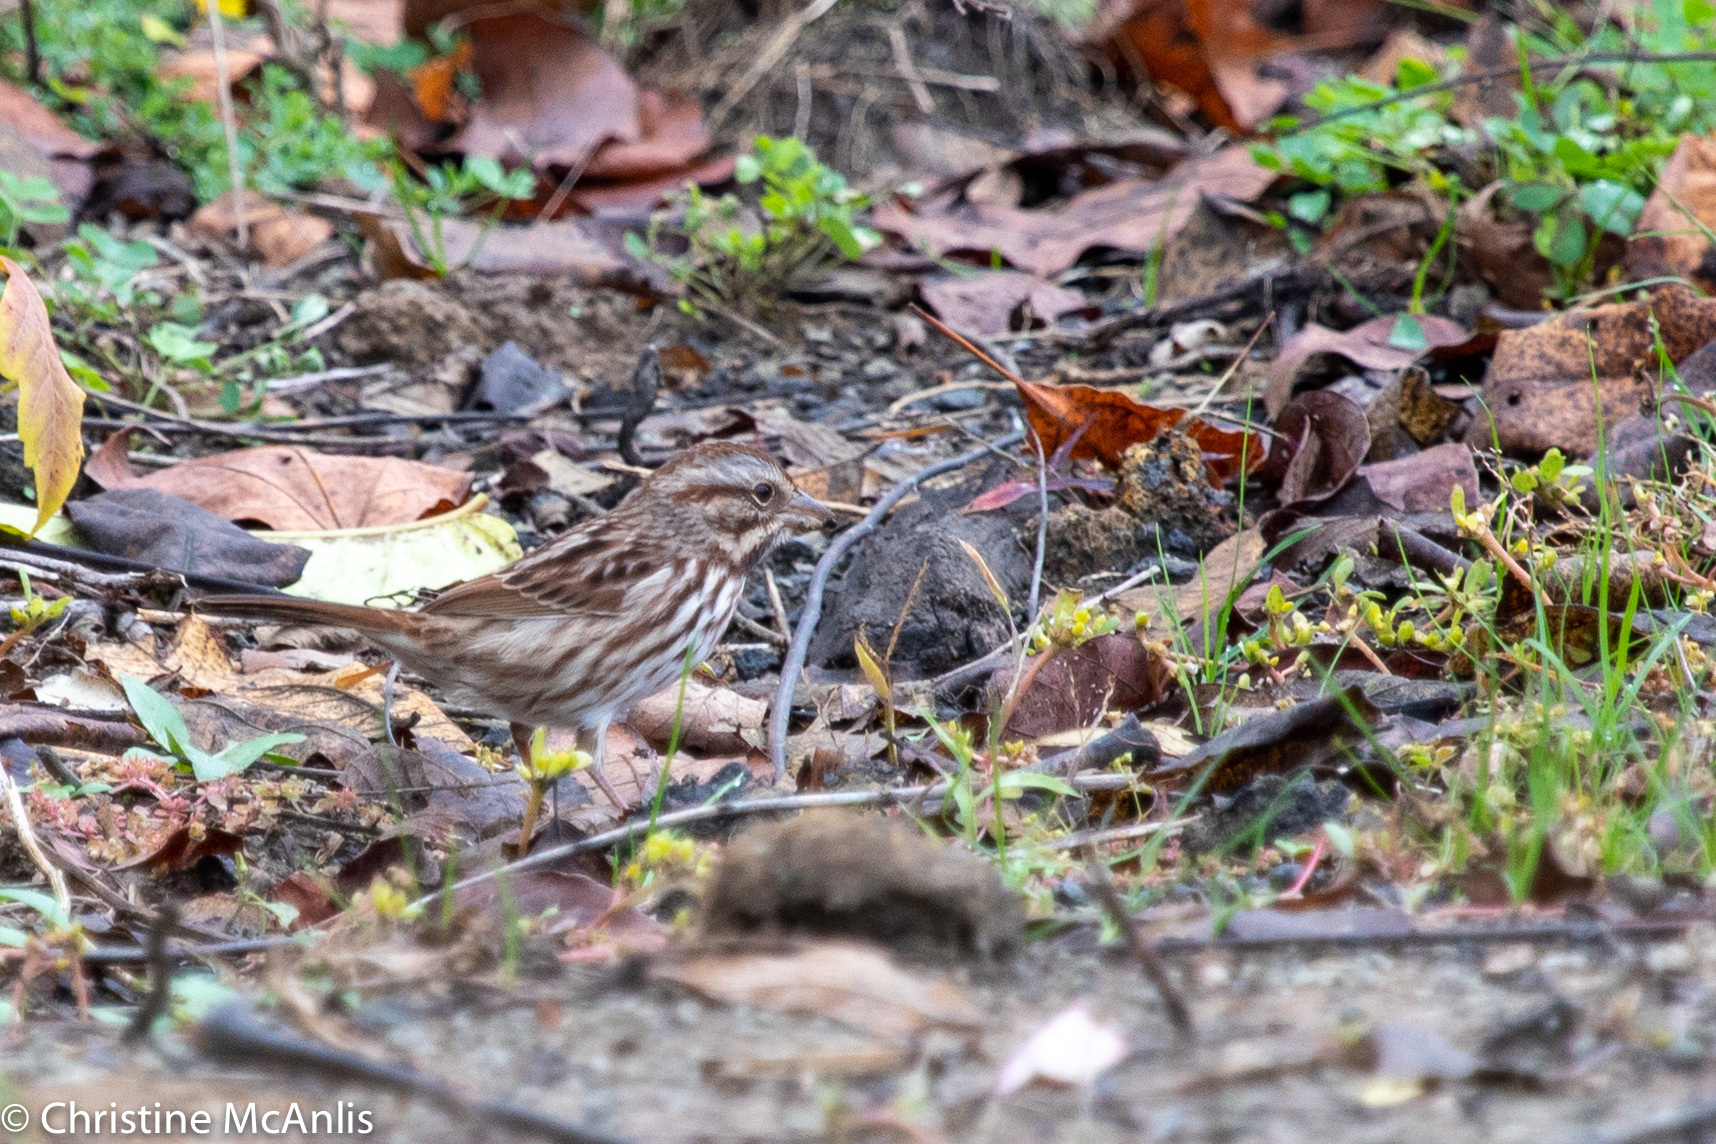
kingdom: Animalia
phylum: Chordata
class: Aves
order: Passeriformes
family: Passerellidae
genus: Melospiza
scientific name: Melospiza melodia
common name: Song sparrow
